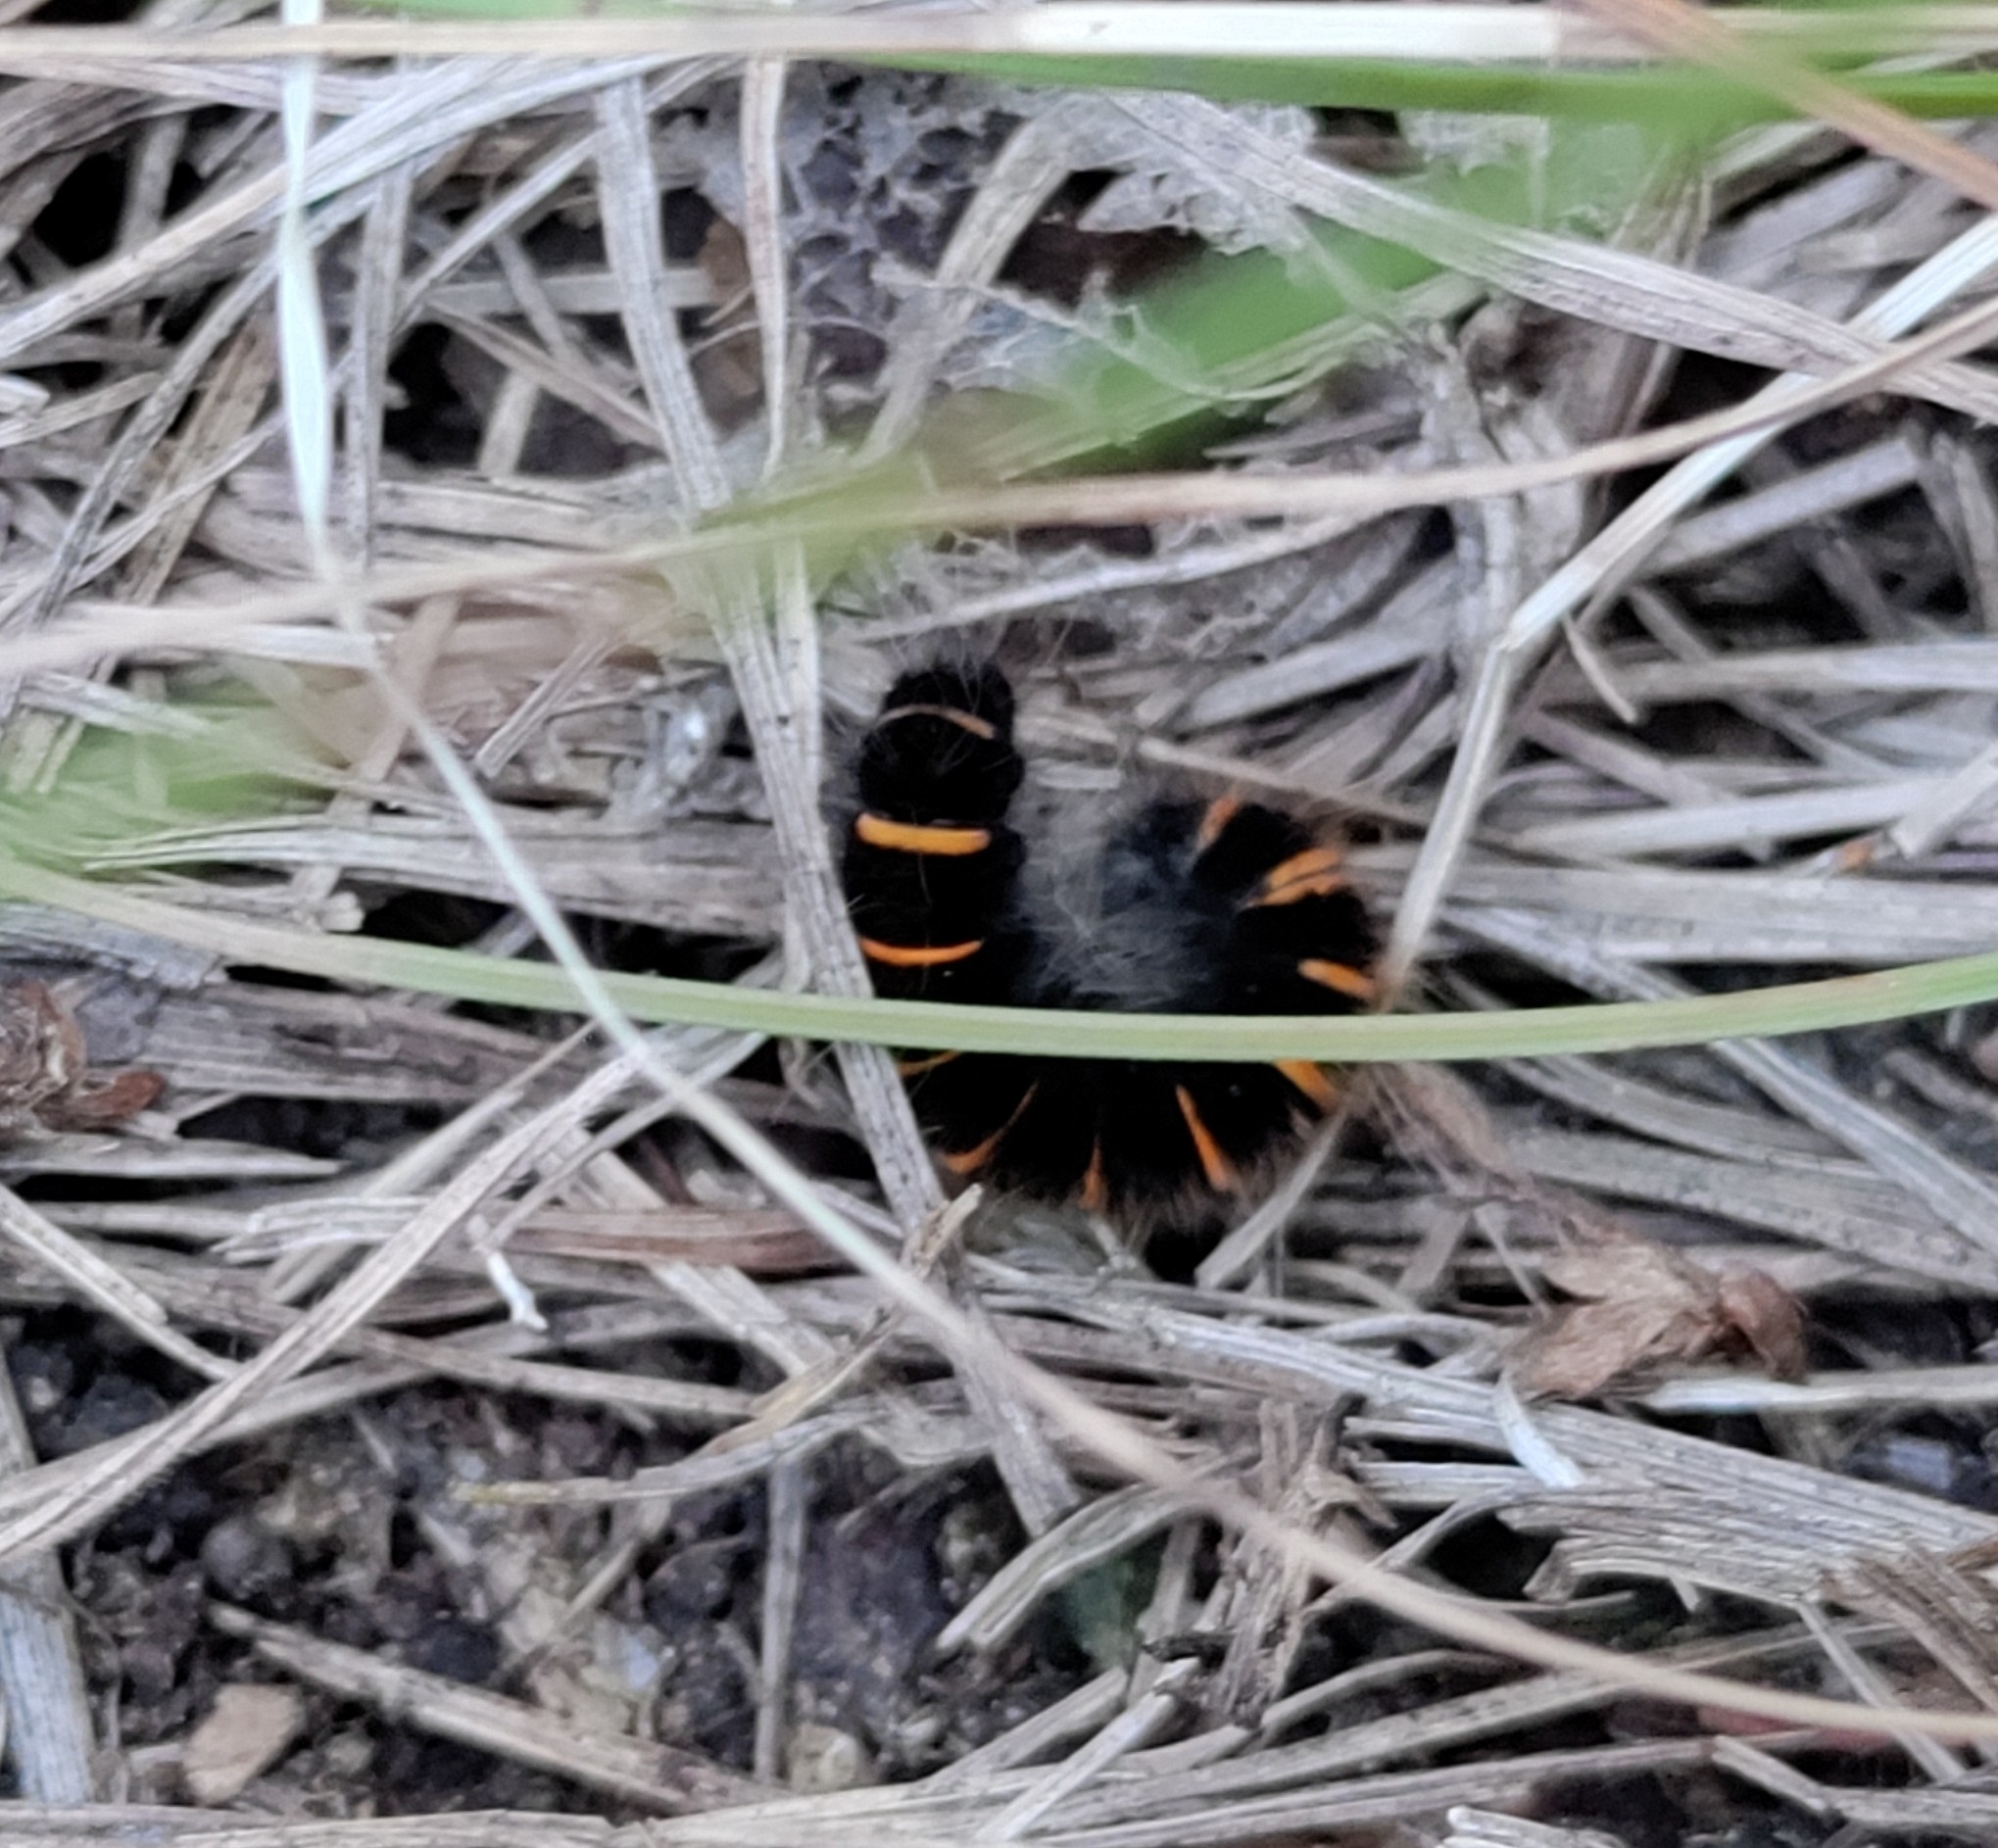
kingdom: Animalia
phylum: Arthropoda
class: Insecta
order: Lepidoptera
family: Lasiocampidae
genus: Macrothylacia
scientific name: Macrothylacia rubi
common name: Fox moth
